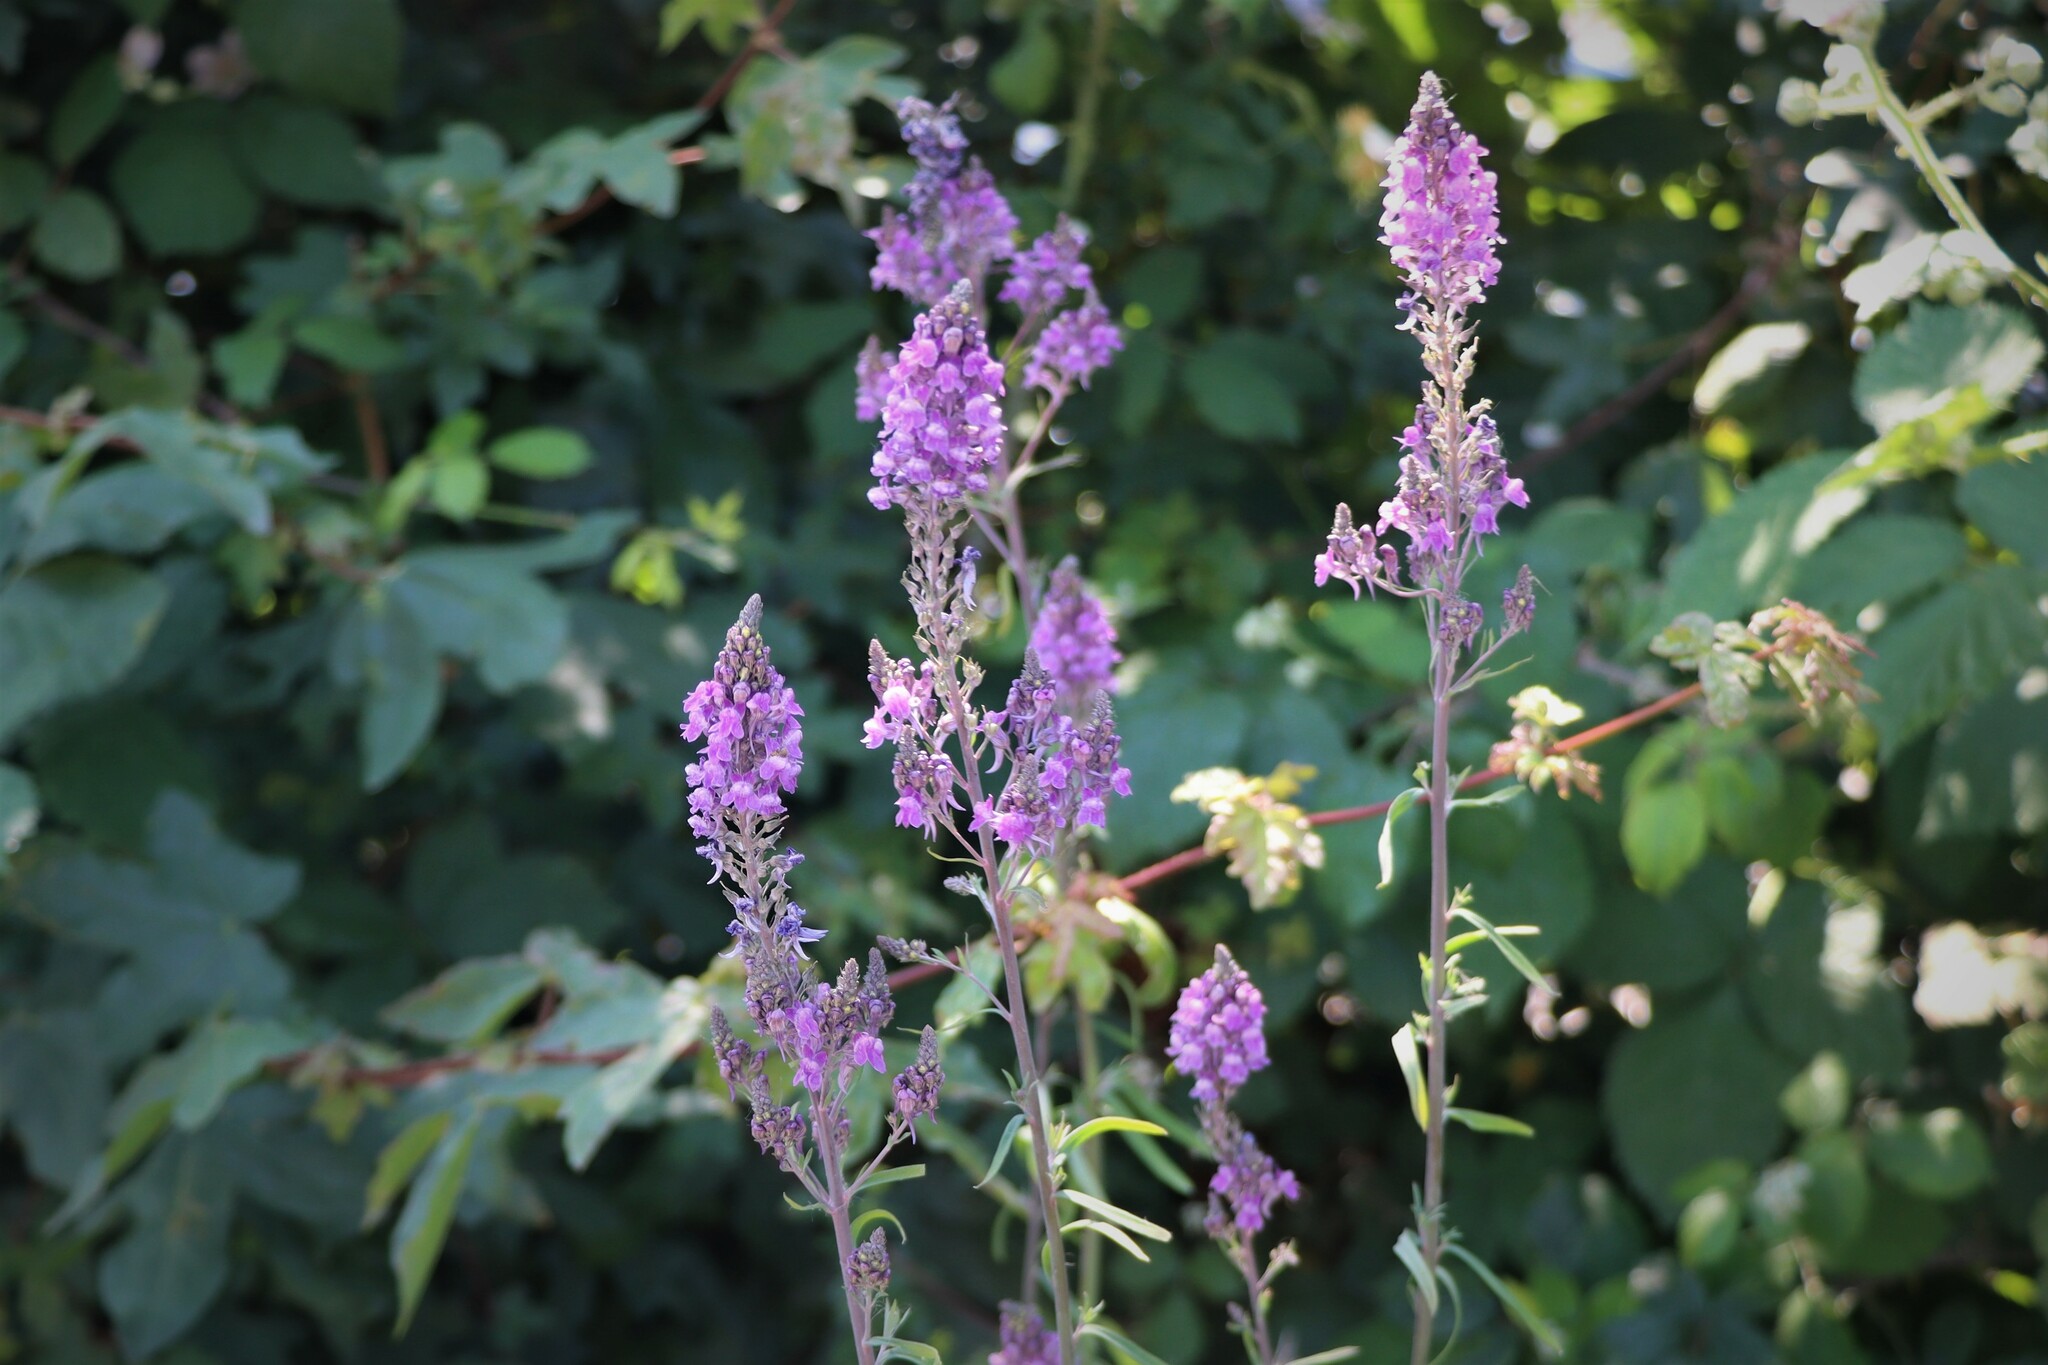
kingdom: Plantae
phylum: Tracheophyta
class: Magnoliopsida
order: Lamiales
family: Plantaginaceae
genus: Linaria
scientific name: Linaria purpurea
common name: Purple toadflax
